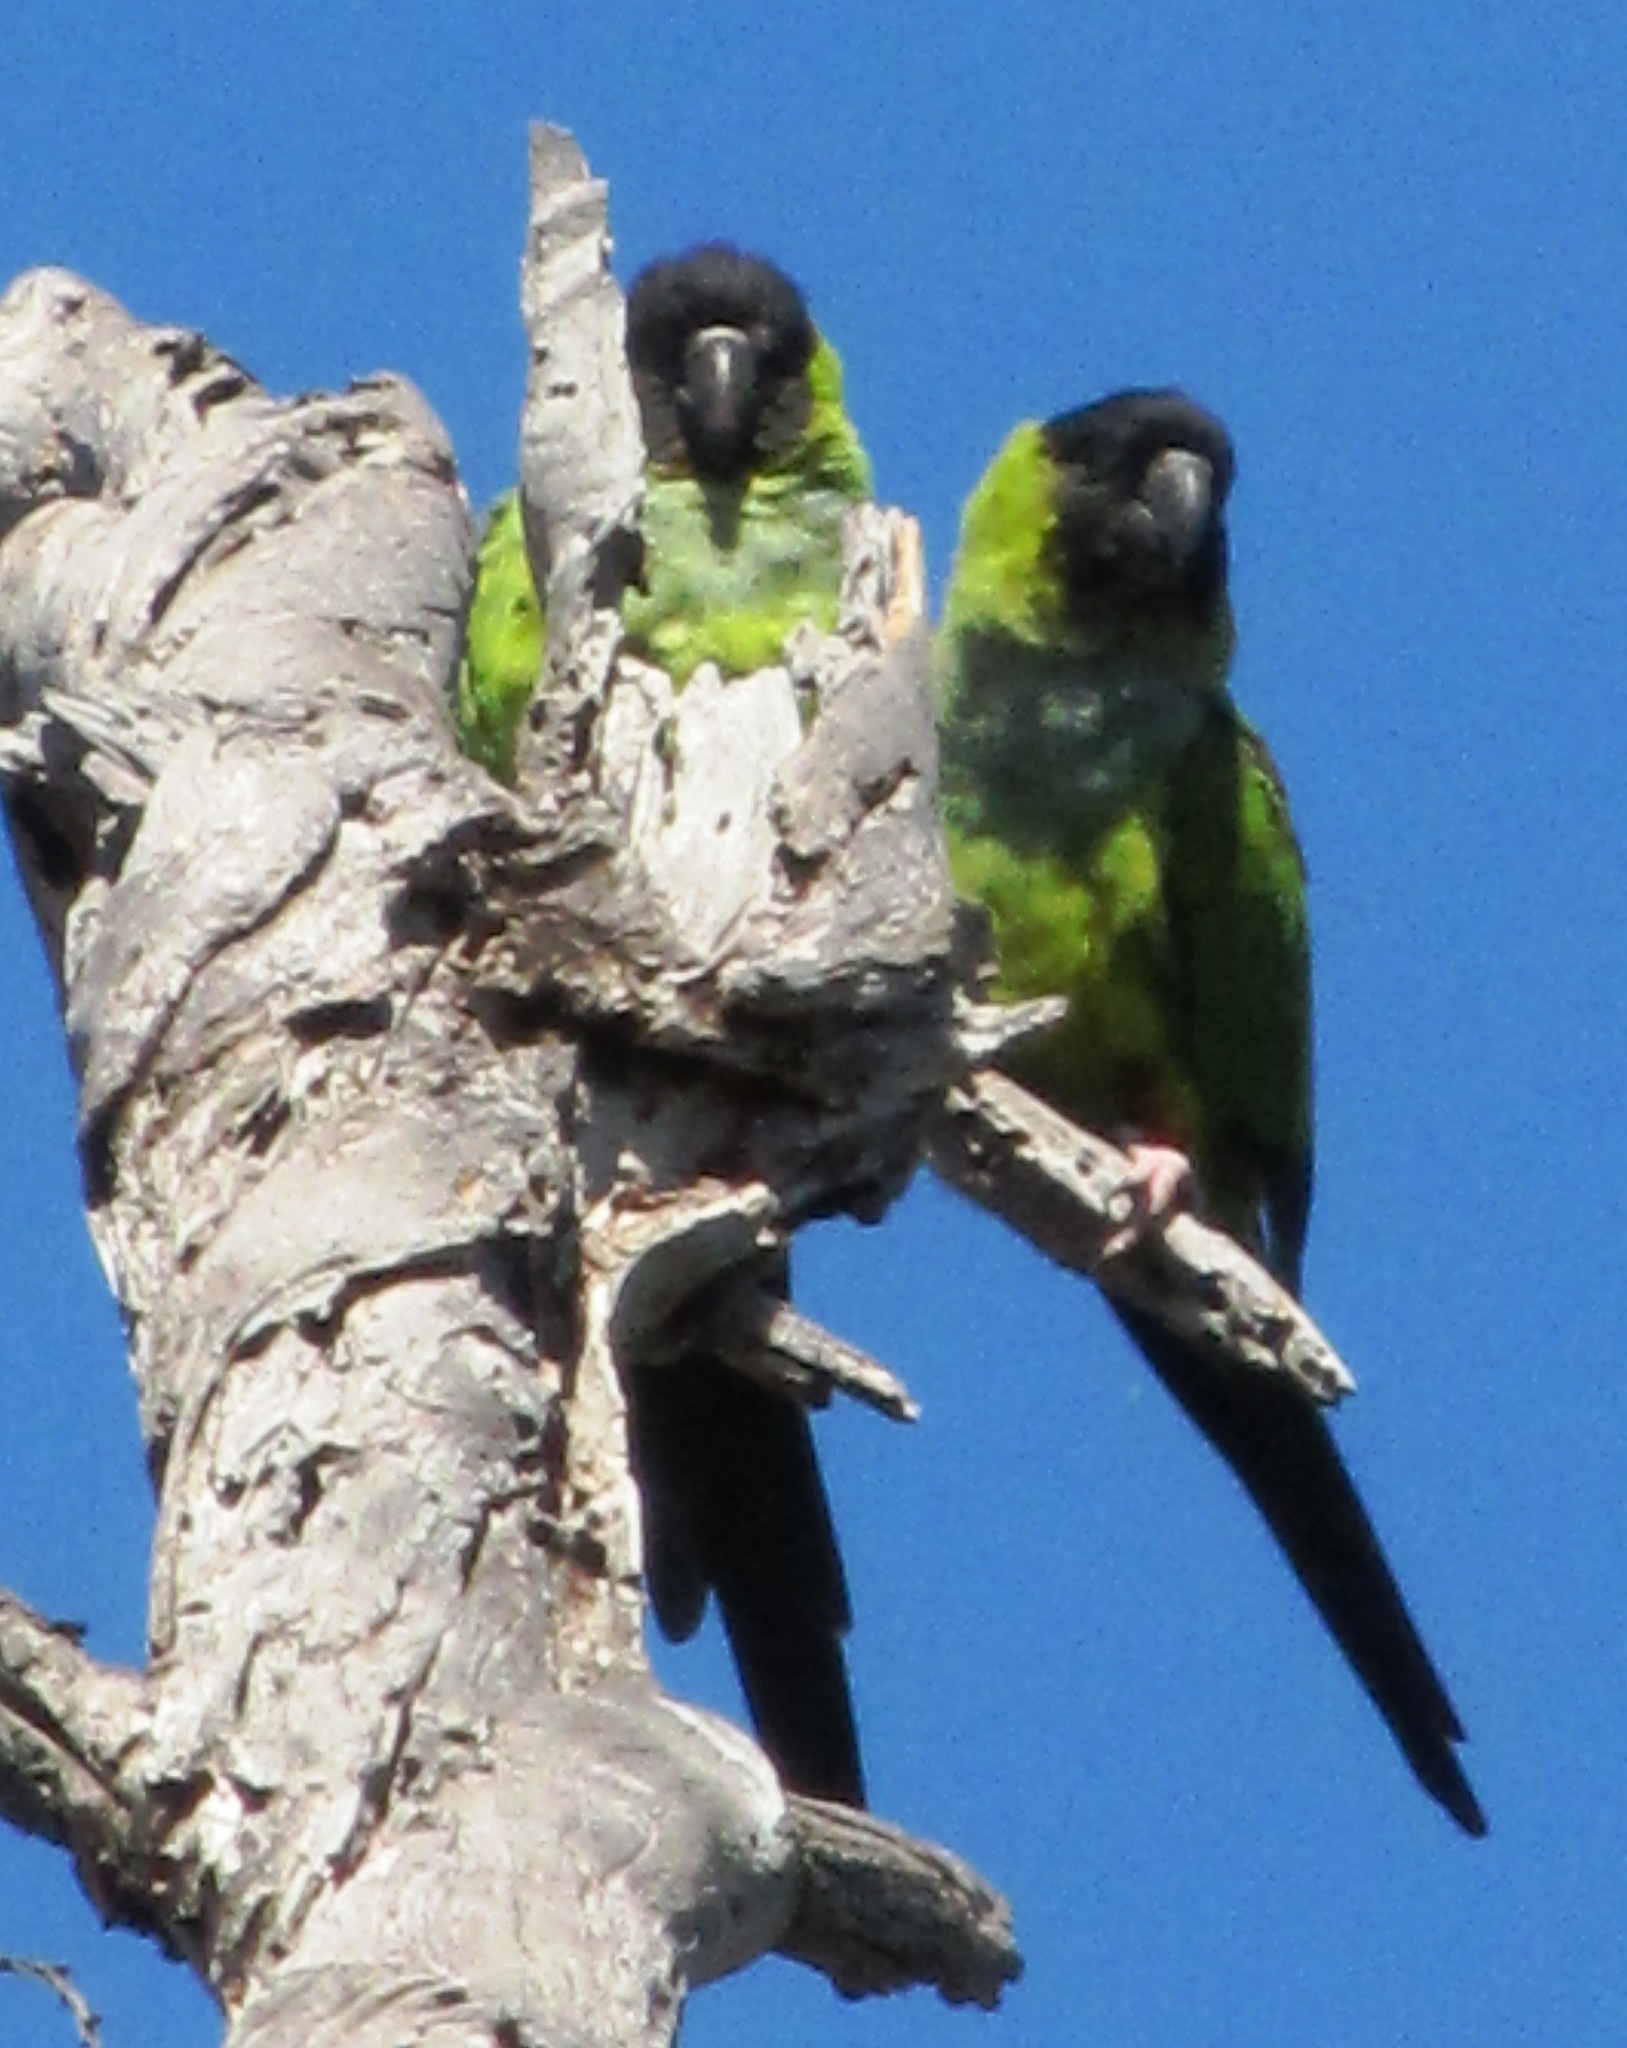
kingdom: Animalia
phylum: Chordata
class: Aves
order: Psittaciformes
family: Psittacidae
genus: Nandayus
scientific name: Nandayus nenday
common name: Nanday parakeet
